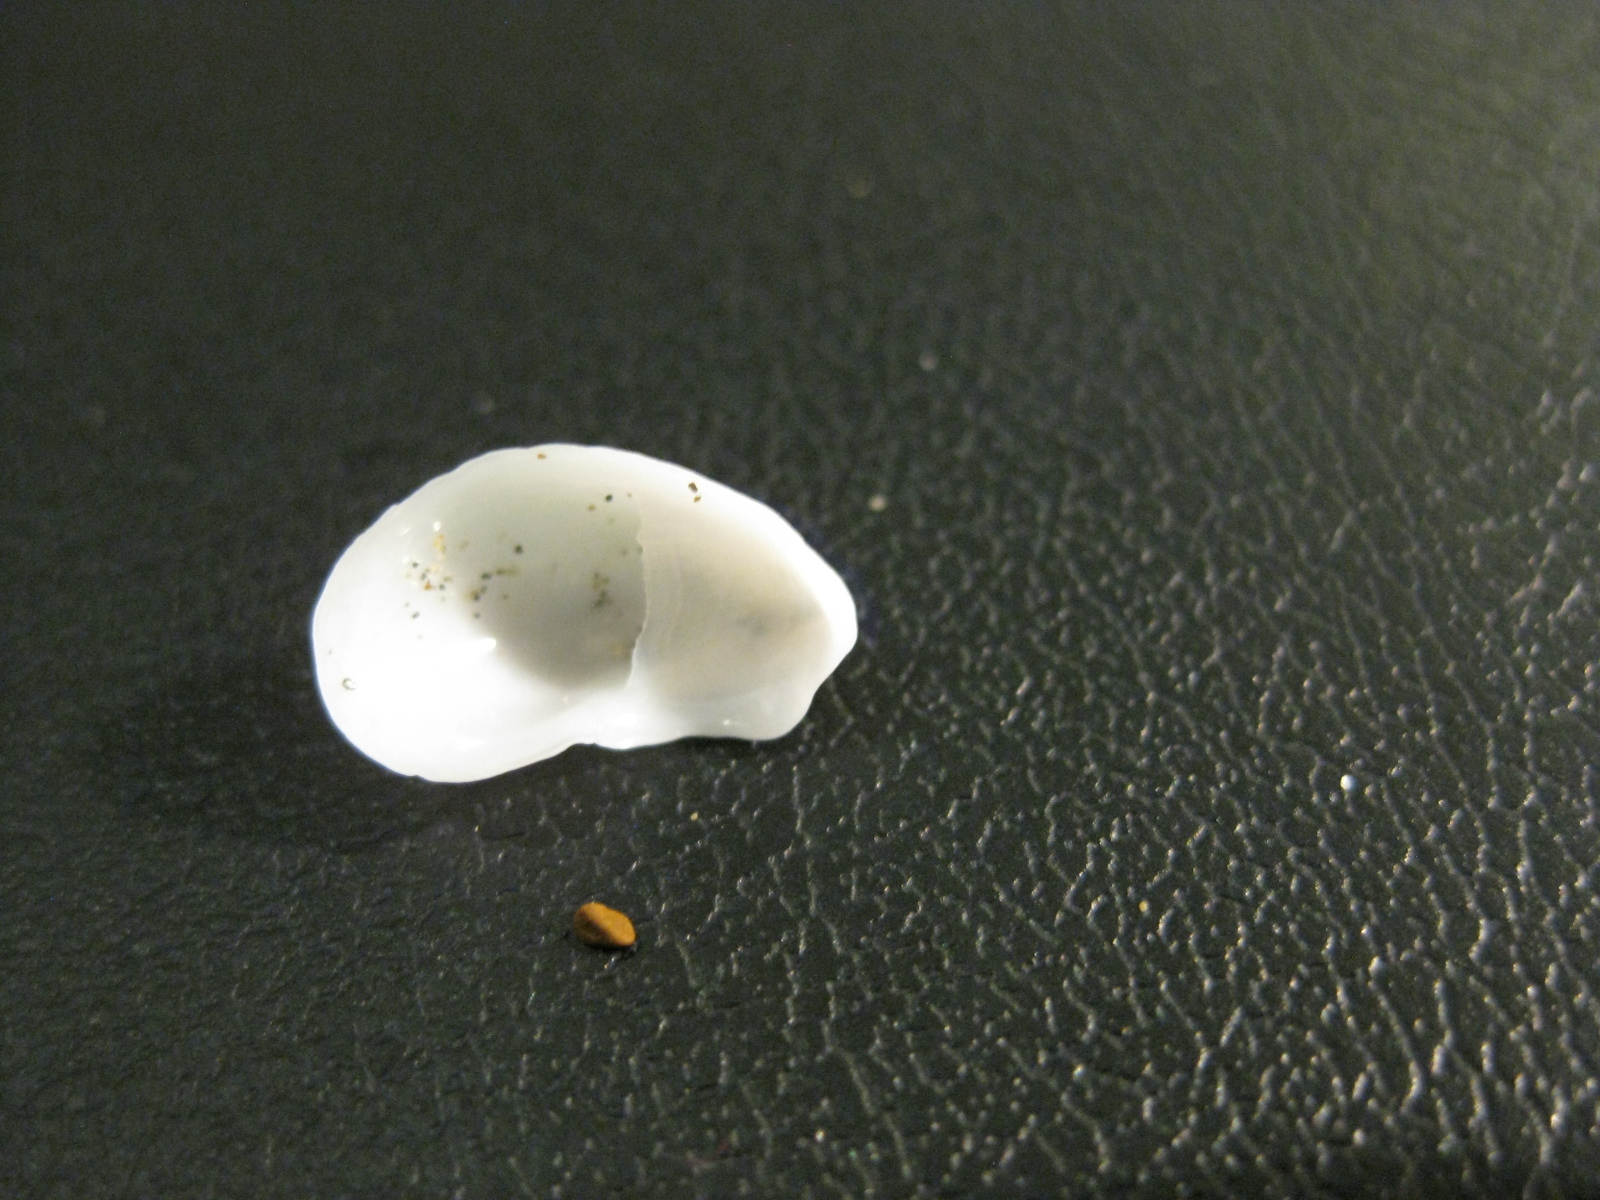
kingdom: Animalia
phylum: Mollusca
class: Gastropoda
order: Littorinimorpha
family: Calyptraeidae
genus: Maoricrypta
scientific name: Maoricrypta monoxyla
